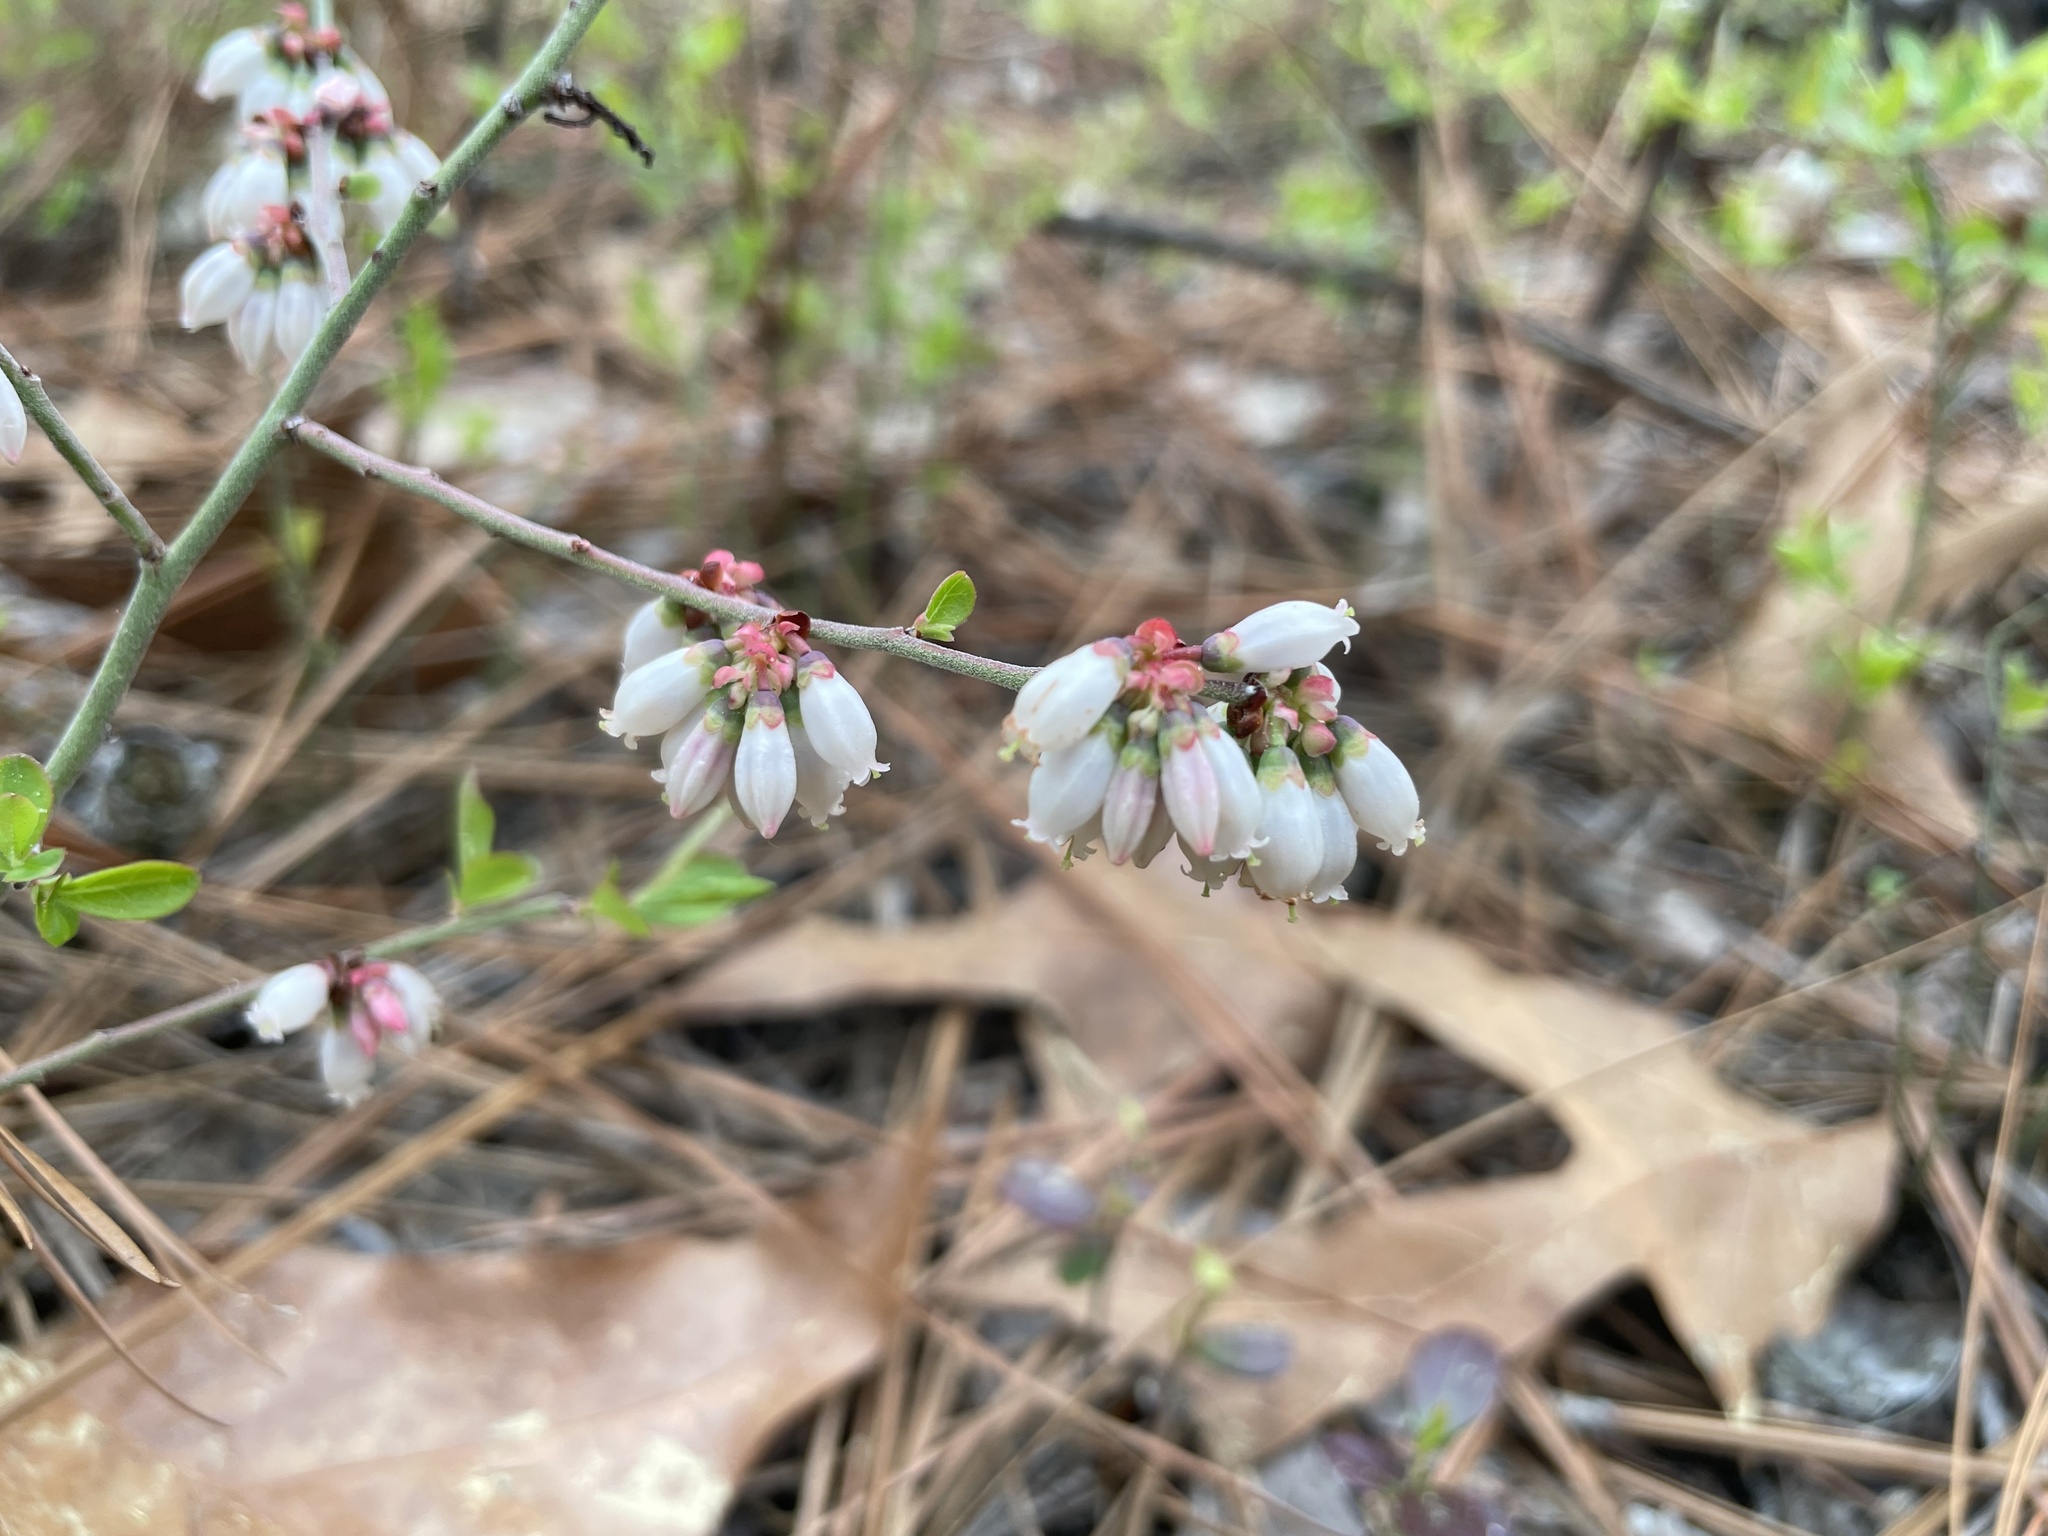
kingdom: Plantae
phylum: Tracheophyta
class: Magnoliopsida
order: Ericales
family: Ericaceae
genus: Vaccinium
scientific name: Vaccinium tenellum
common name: Southern blueberry
